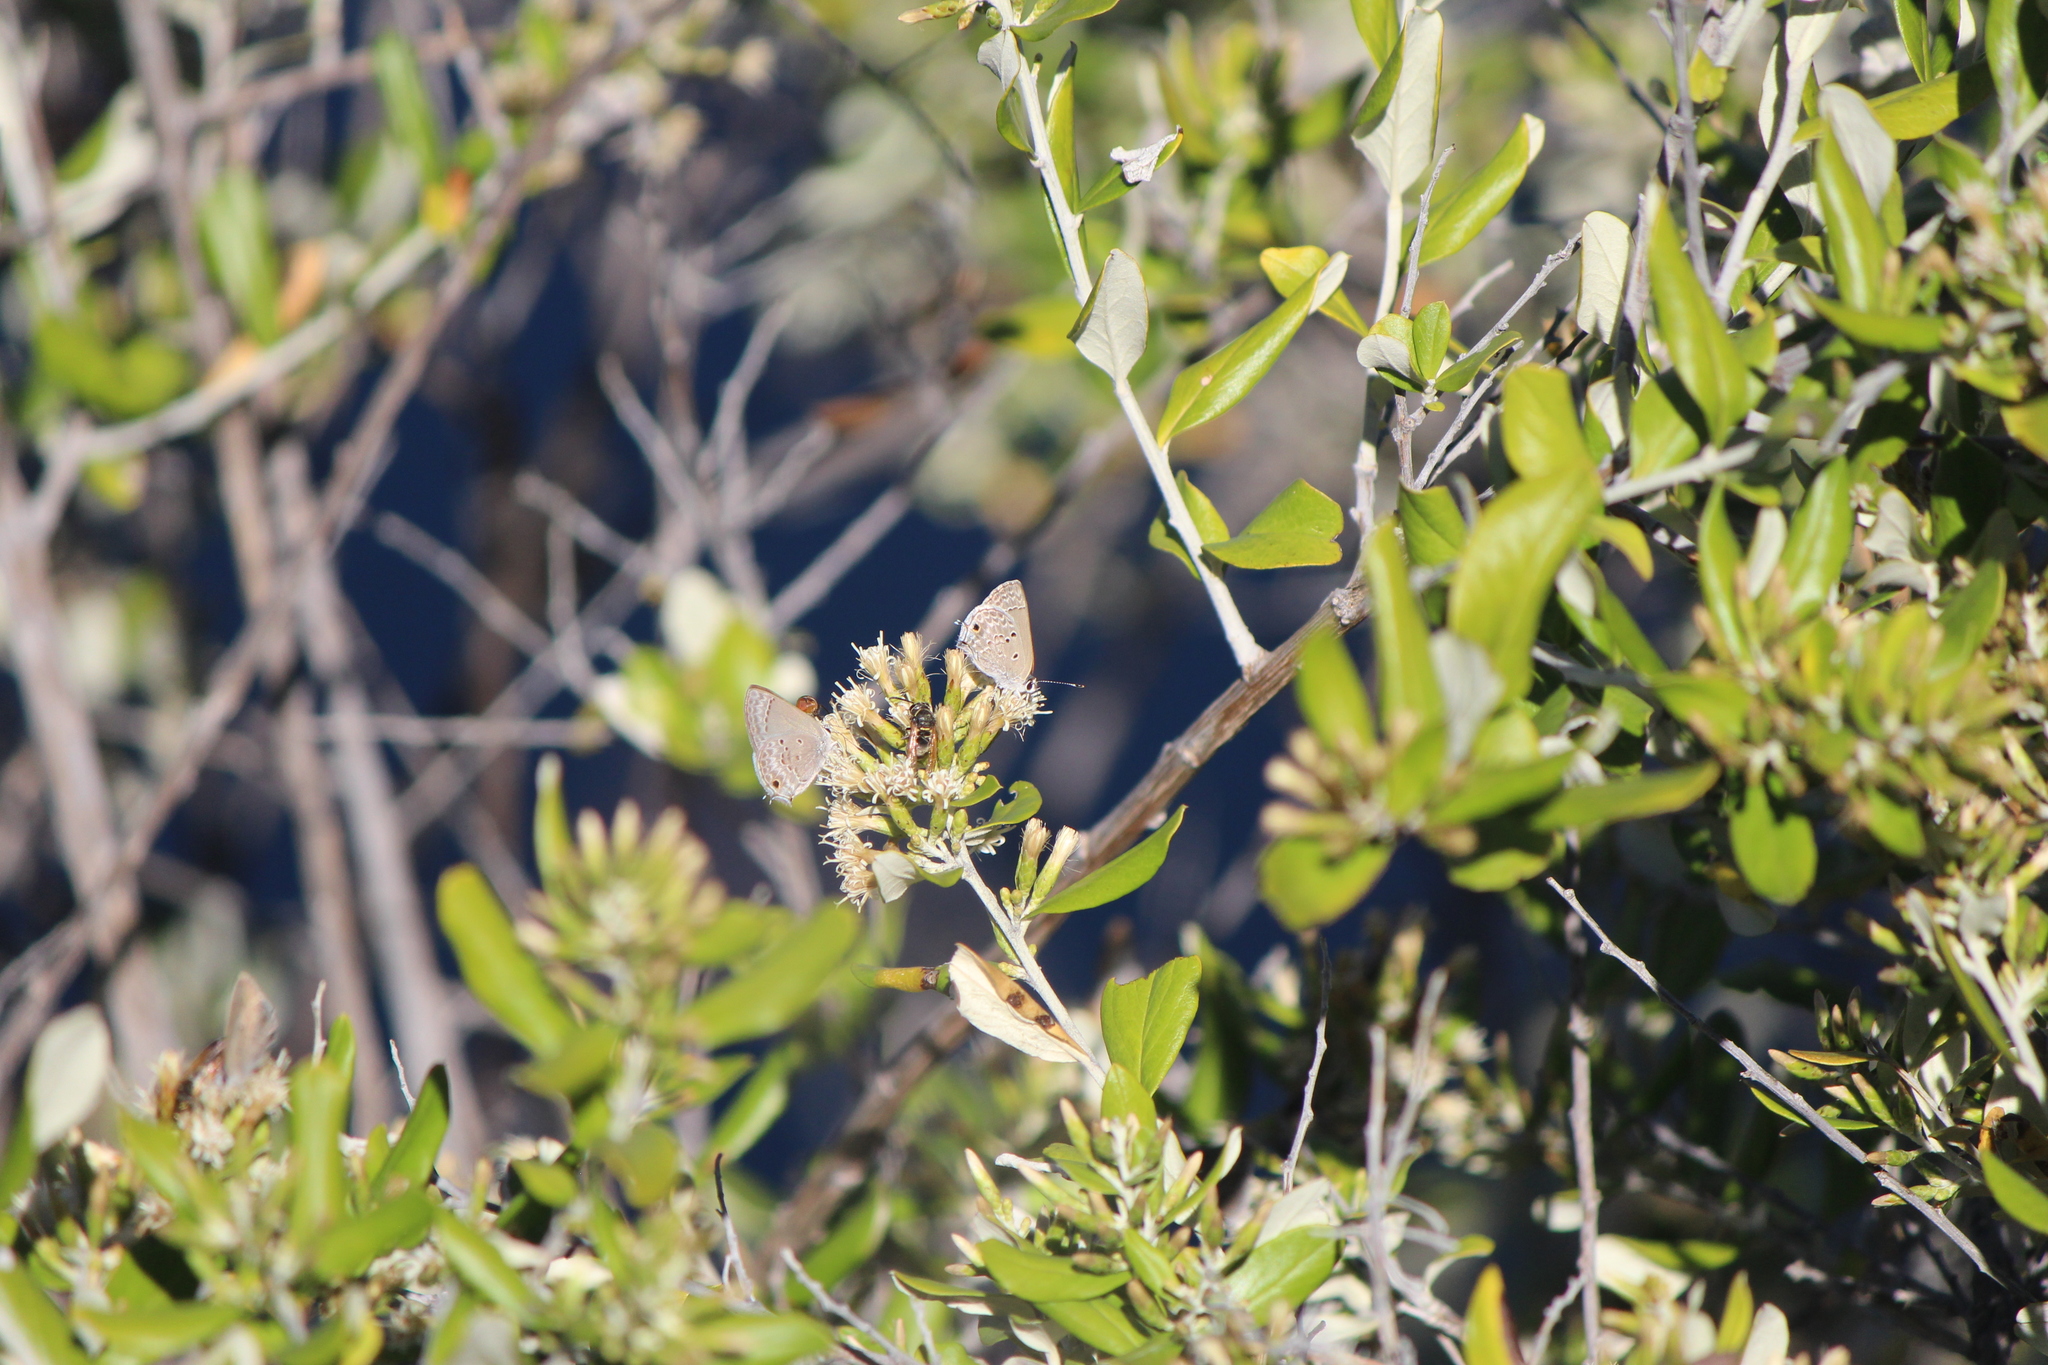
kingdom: Animalia
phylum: Arthropoda
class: Insecta
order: Lepidoptera
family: Lycaenidae
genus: Callicista
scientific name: Callicista columella
